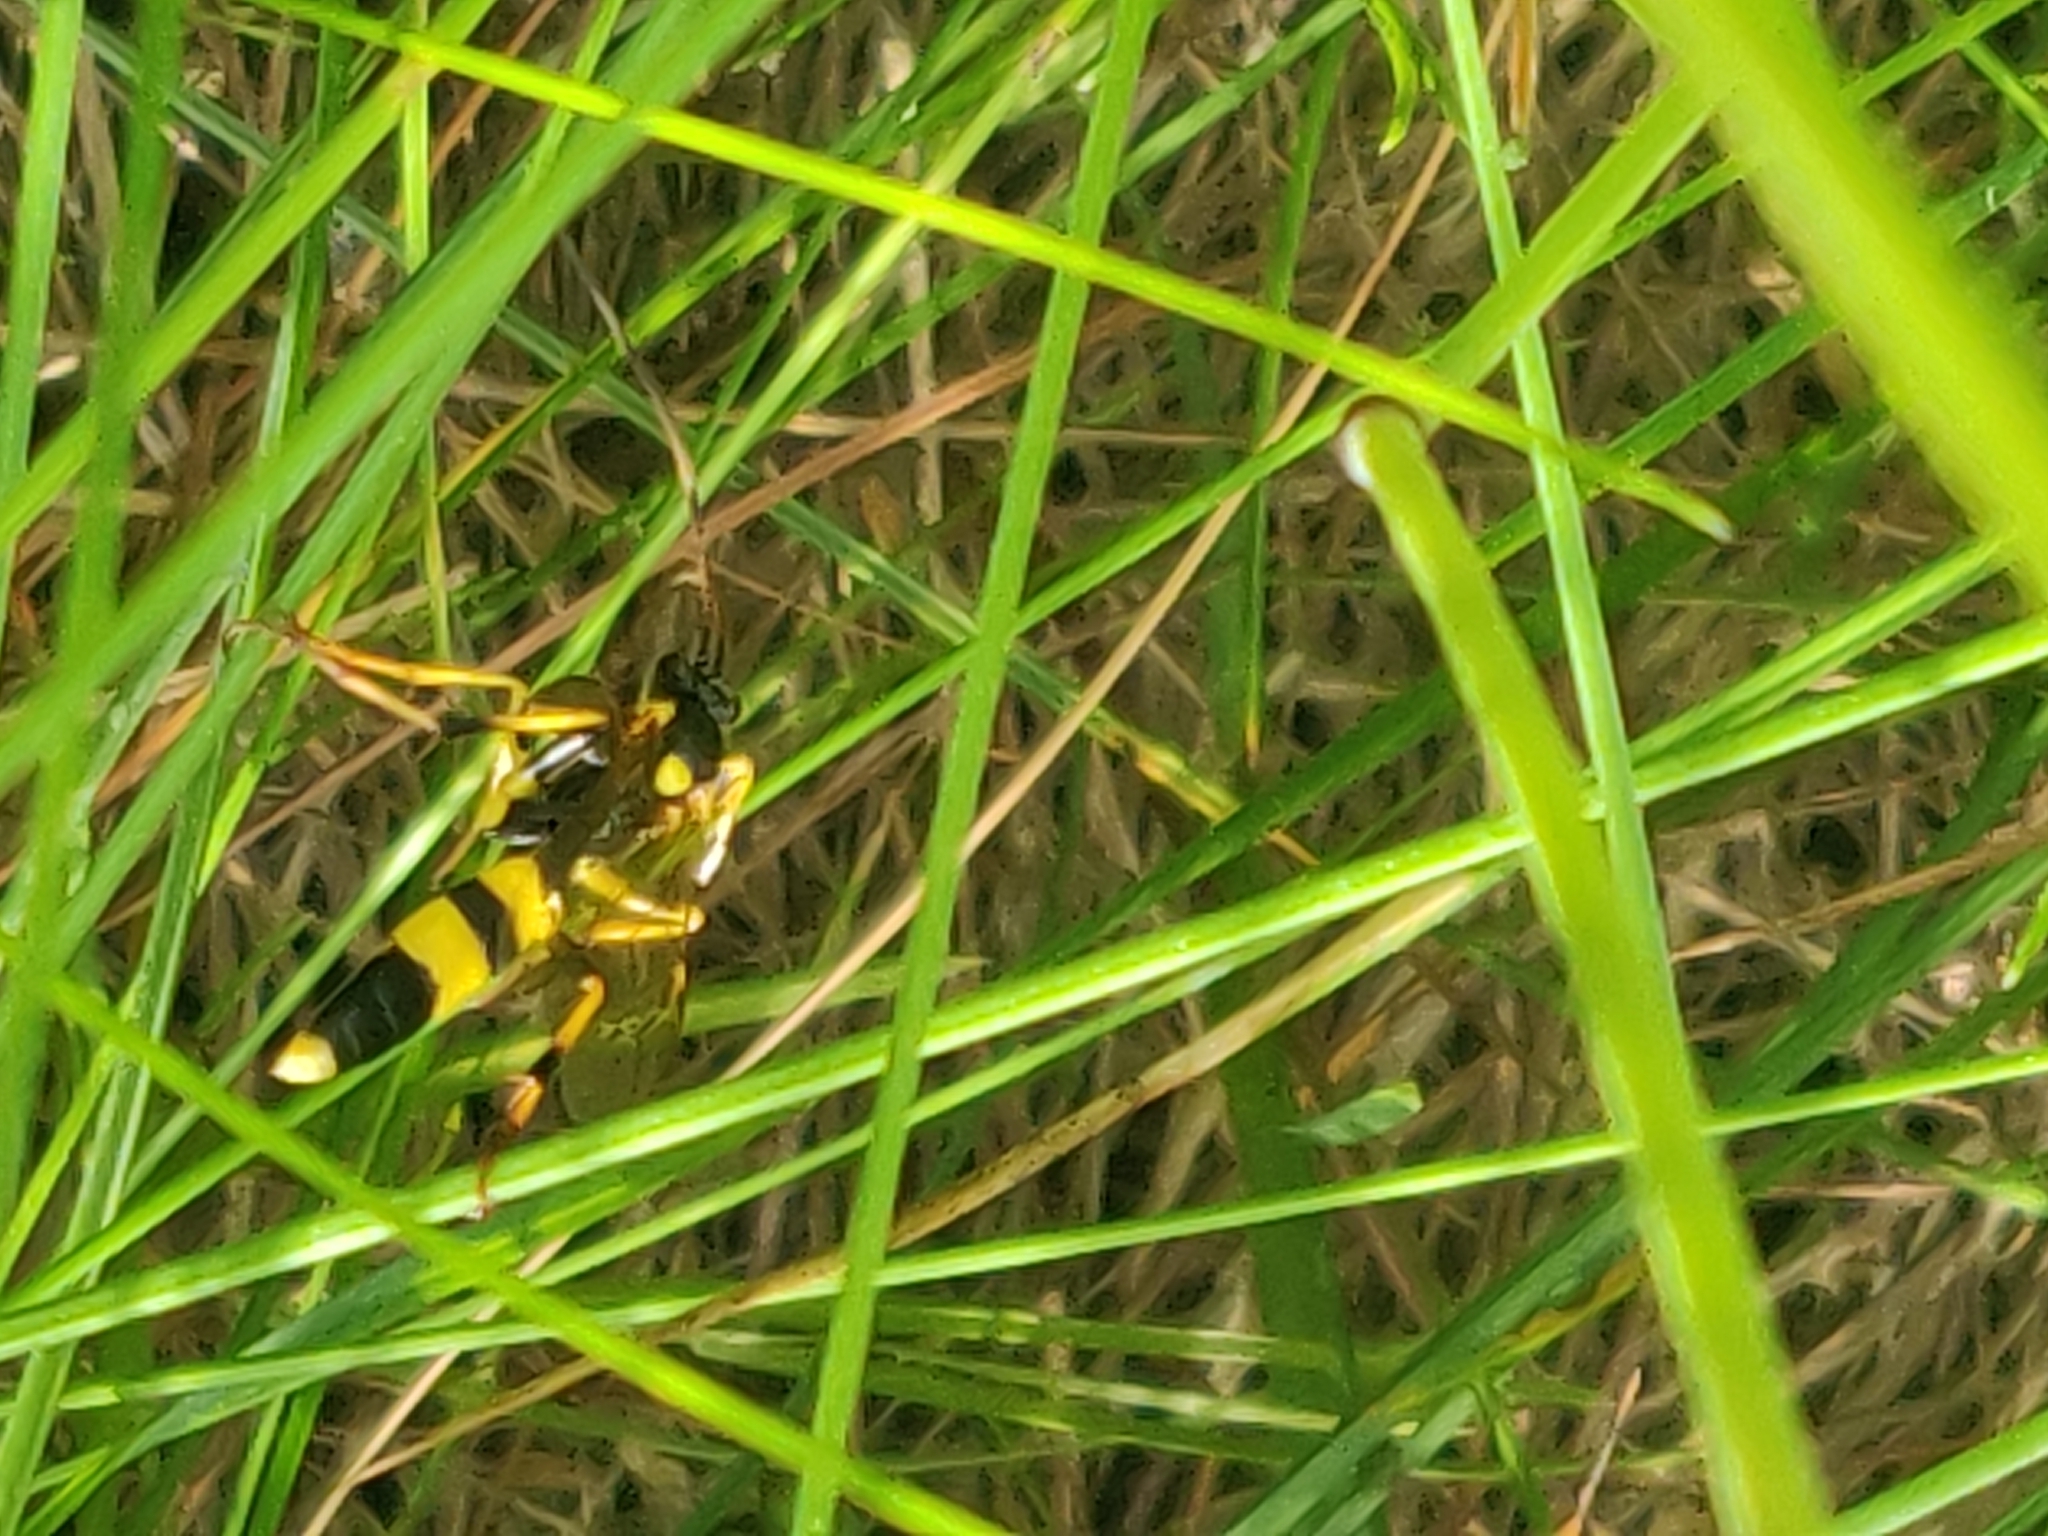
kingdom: Animalia
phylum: Arthropoda
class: Insecta
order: Hymenoptera
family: Ichneumonidae
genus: Amblyteles
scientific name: Amblyteles armatorius
